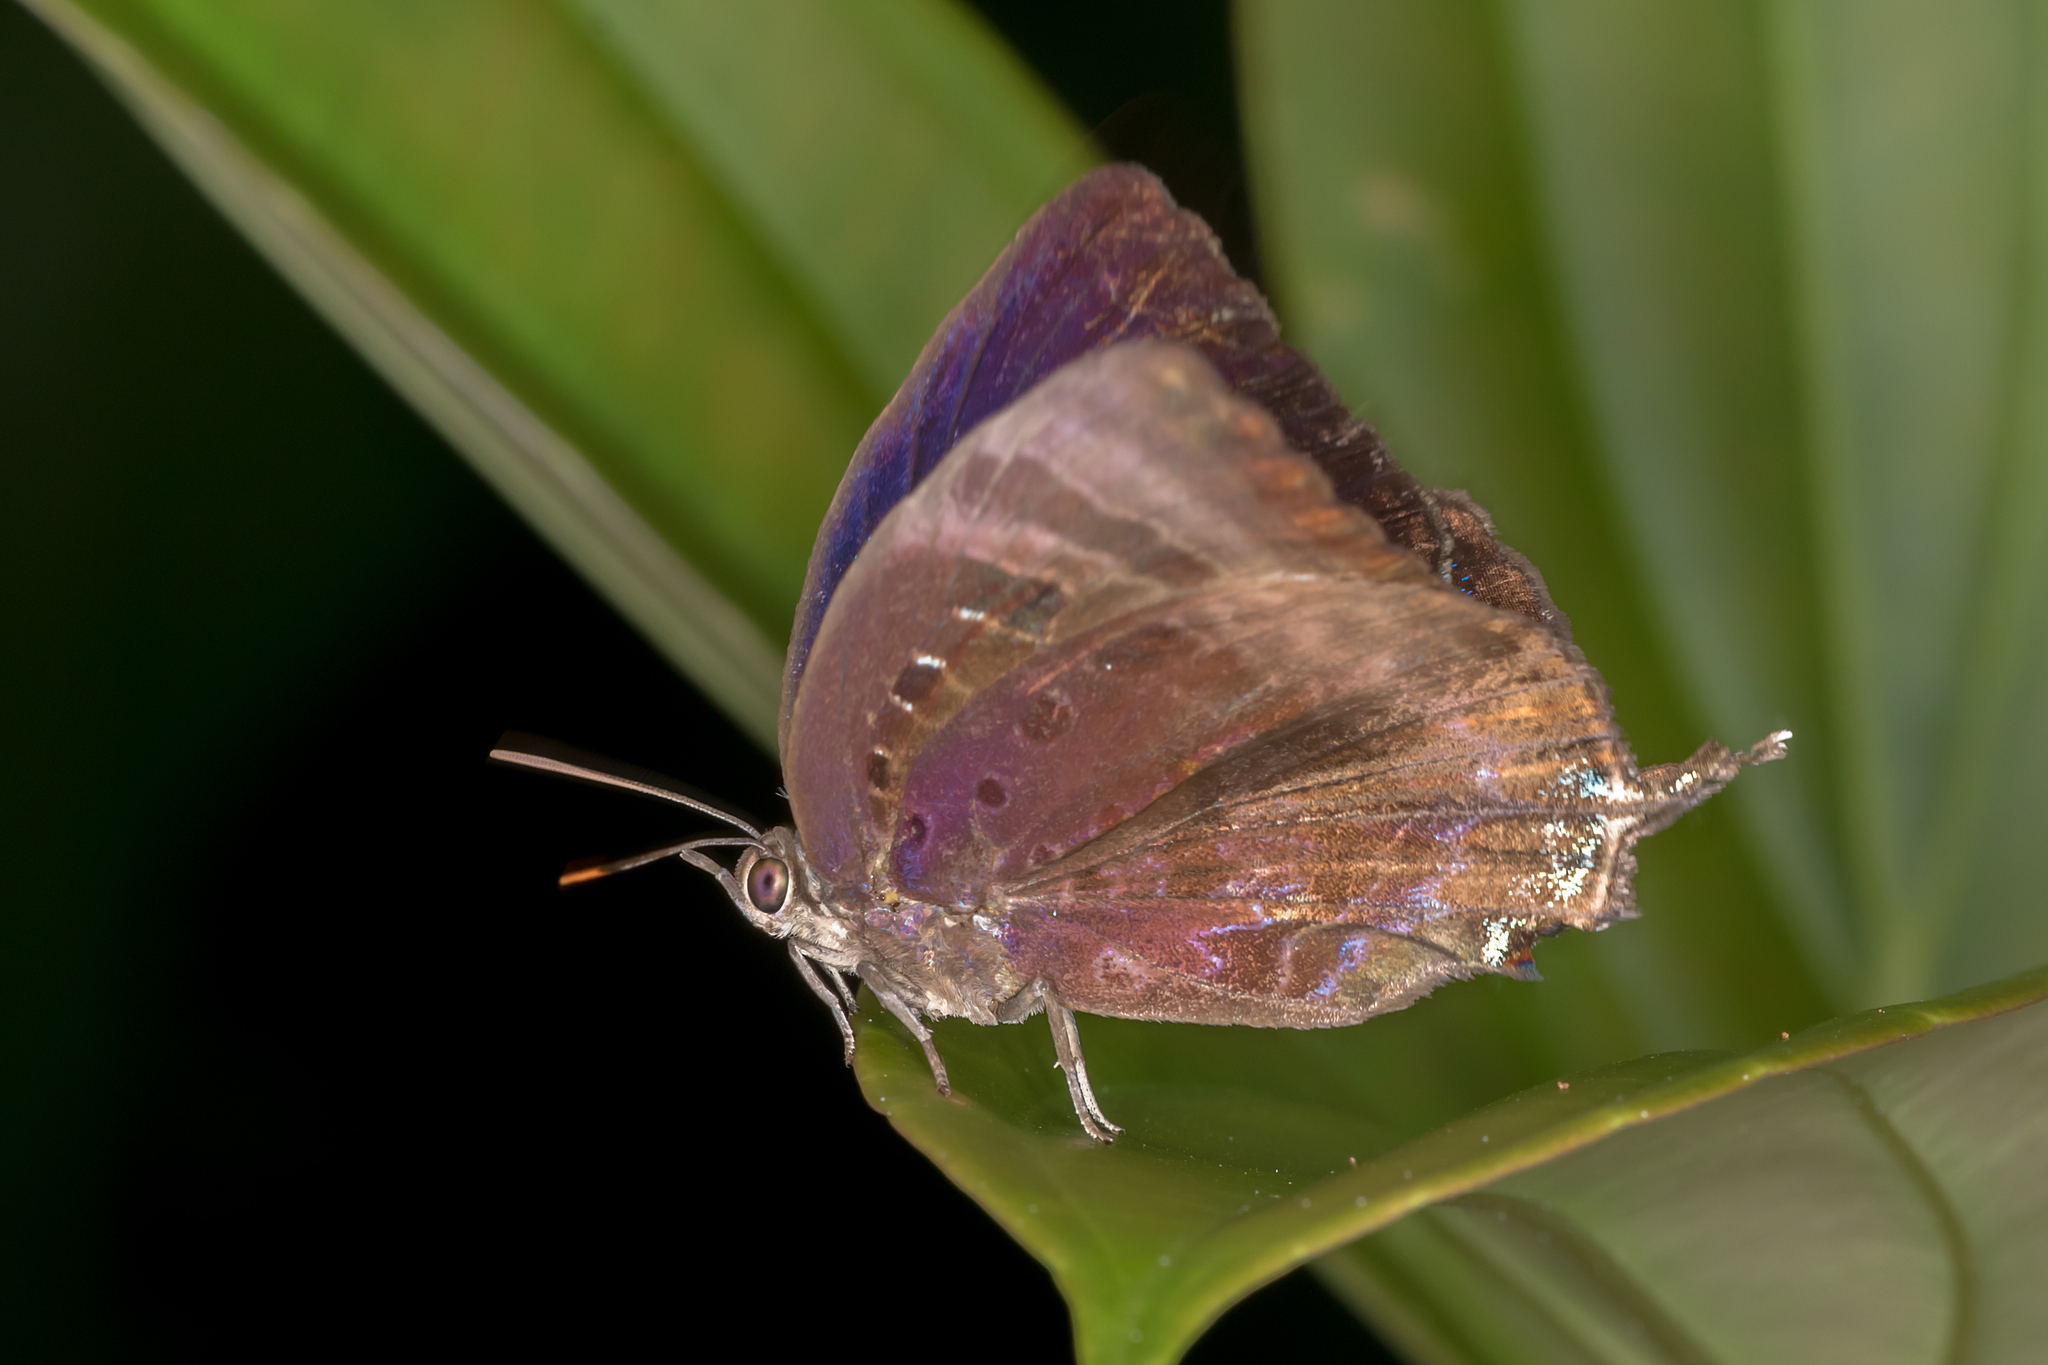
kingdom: Animalia
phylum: Arthropoda
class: Insecta
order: Lepidoptera
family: Lycaenidae
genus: Arhopala
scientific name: Arhopala madytus
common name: Bright oak-blue
